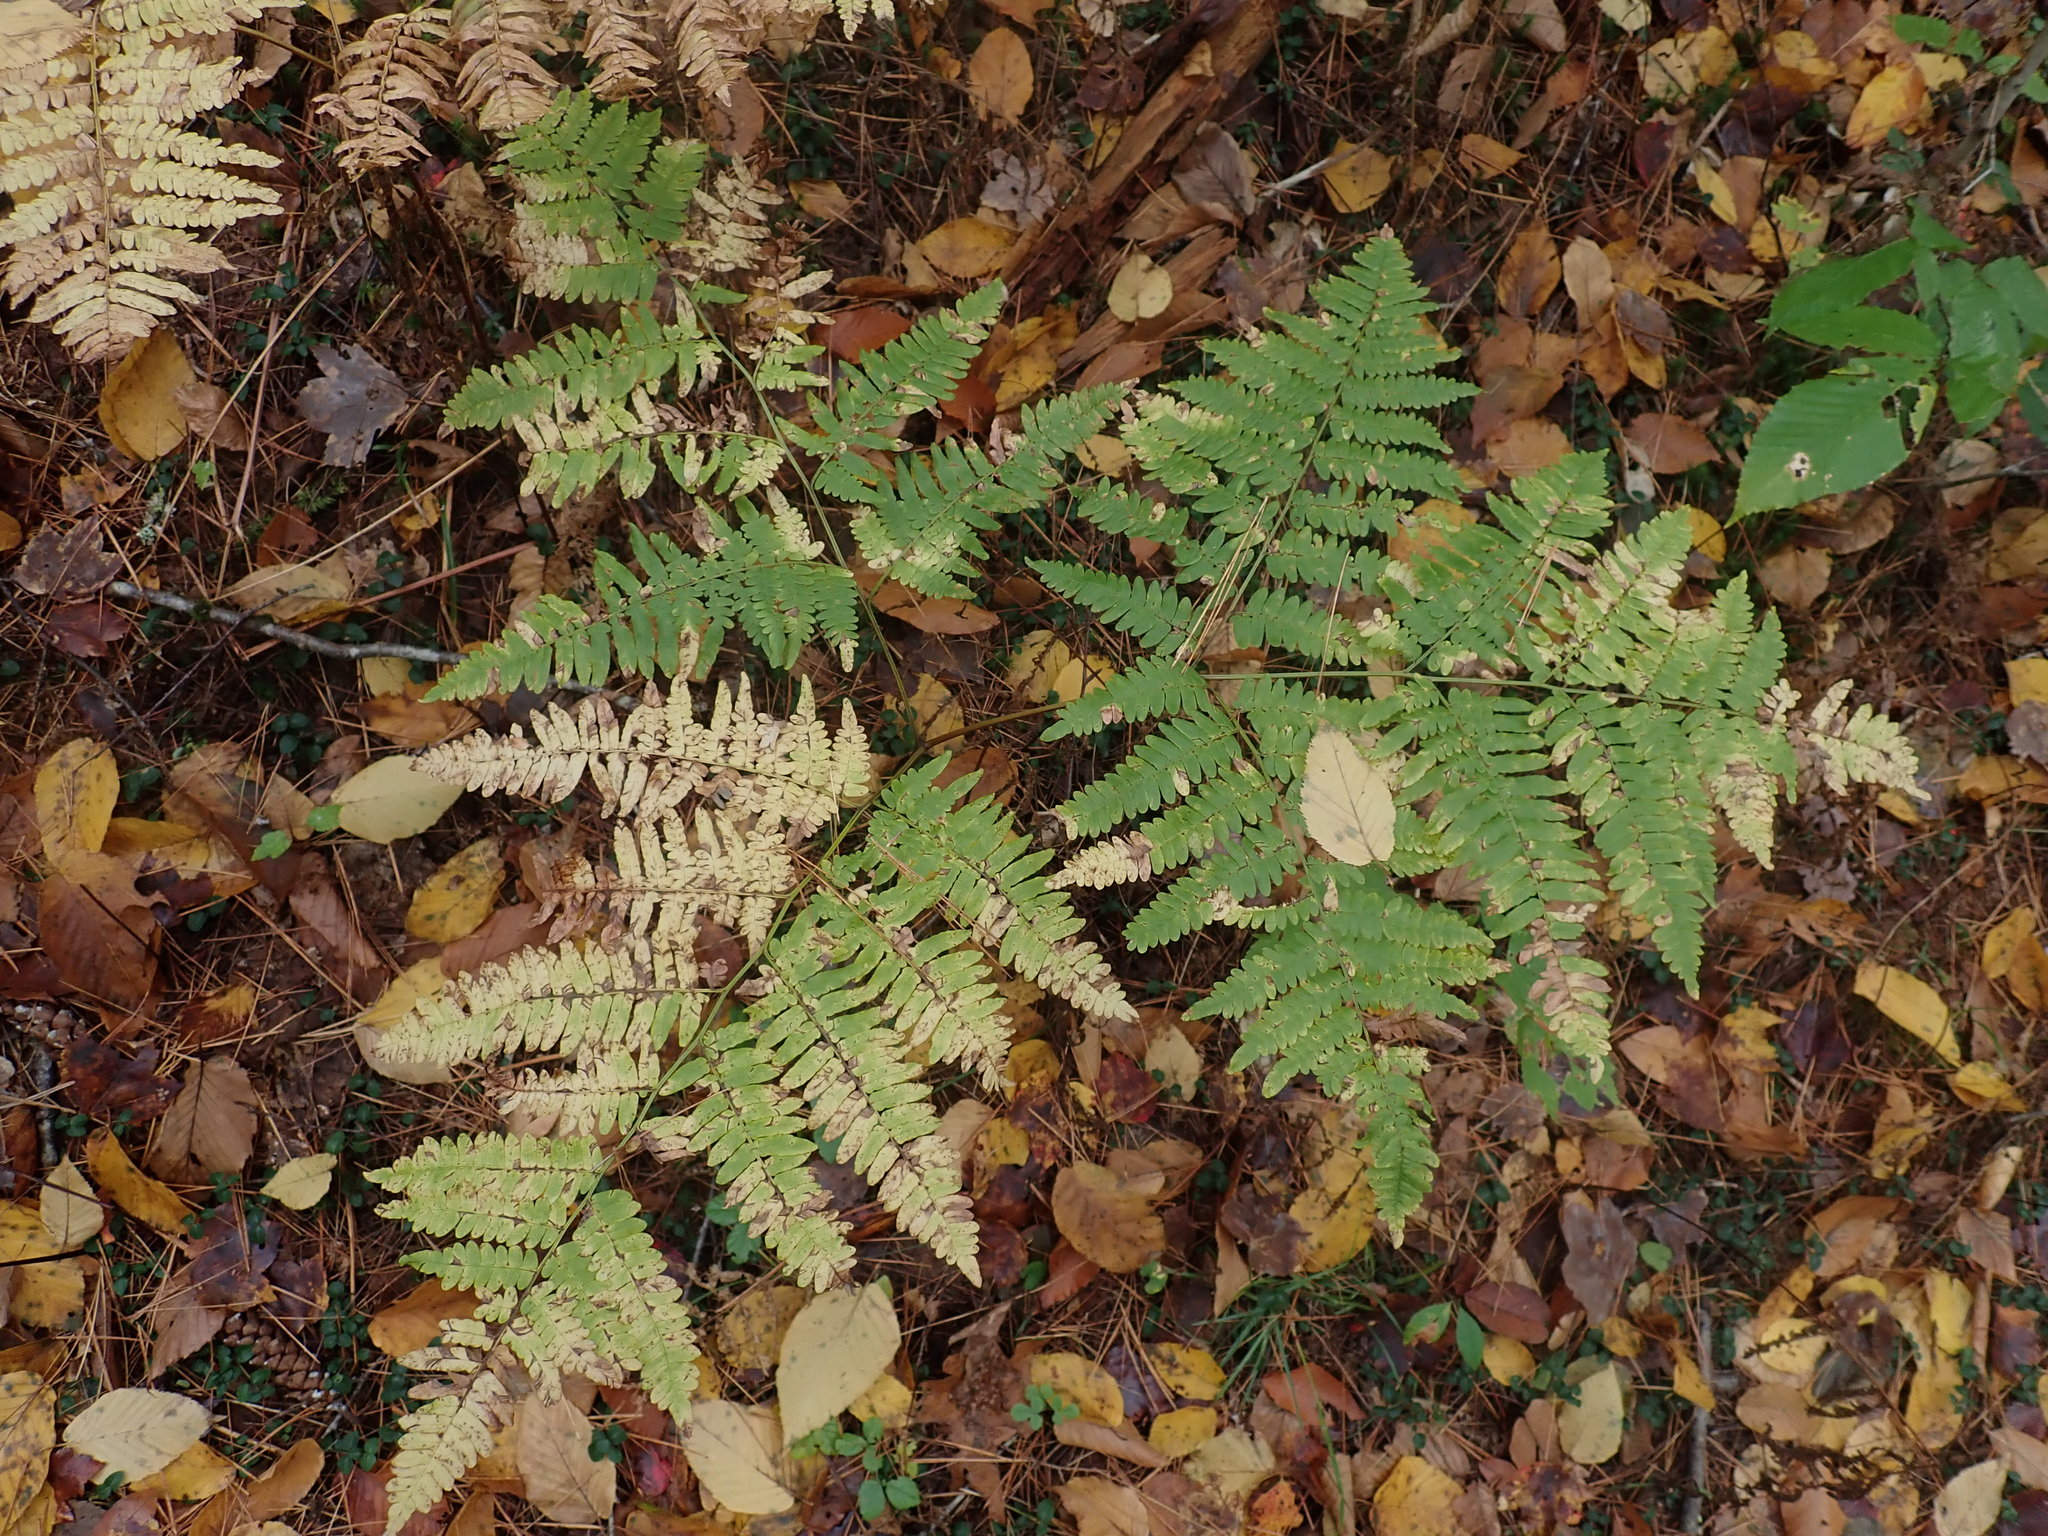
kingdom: Plantae
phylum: Tracheophyta
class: Polypodiopsida
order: Polypodiales
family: Dennstaedtiaceae
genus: Pteridium
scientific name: Pteridium aquilinum
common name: Bracken
